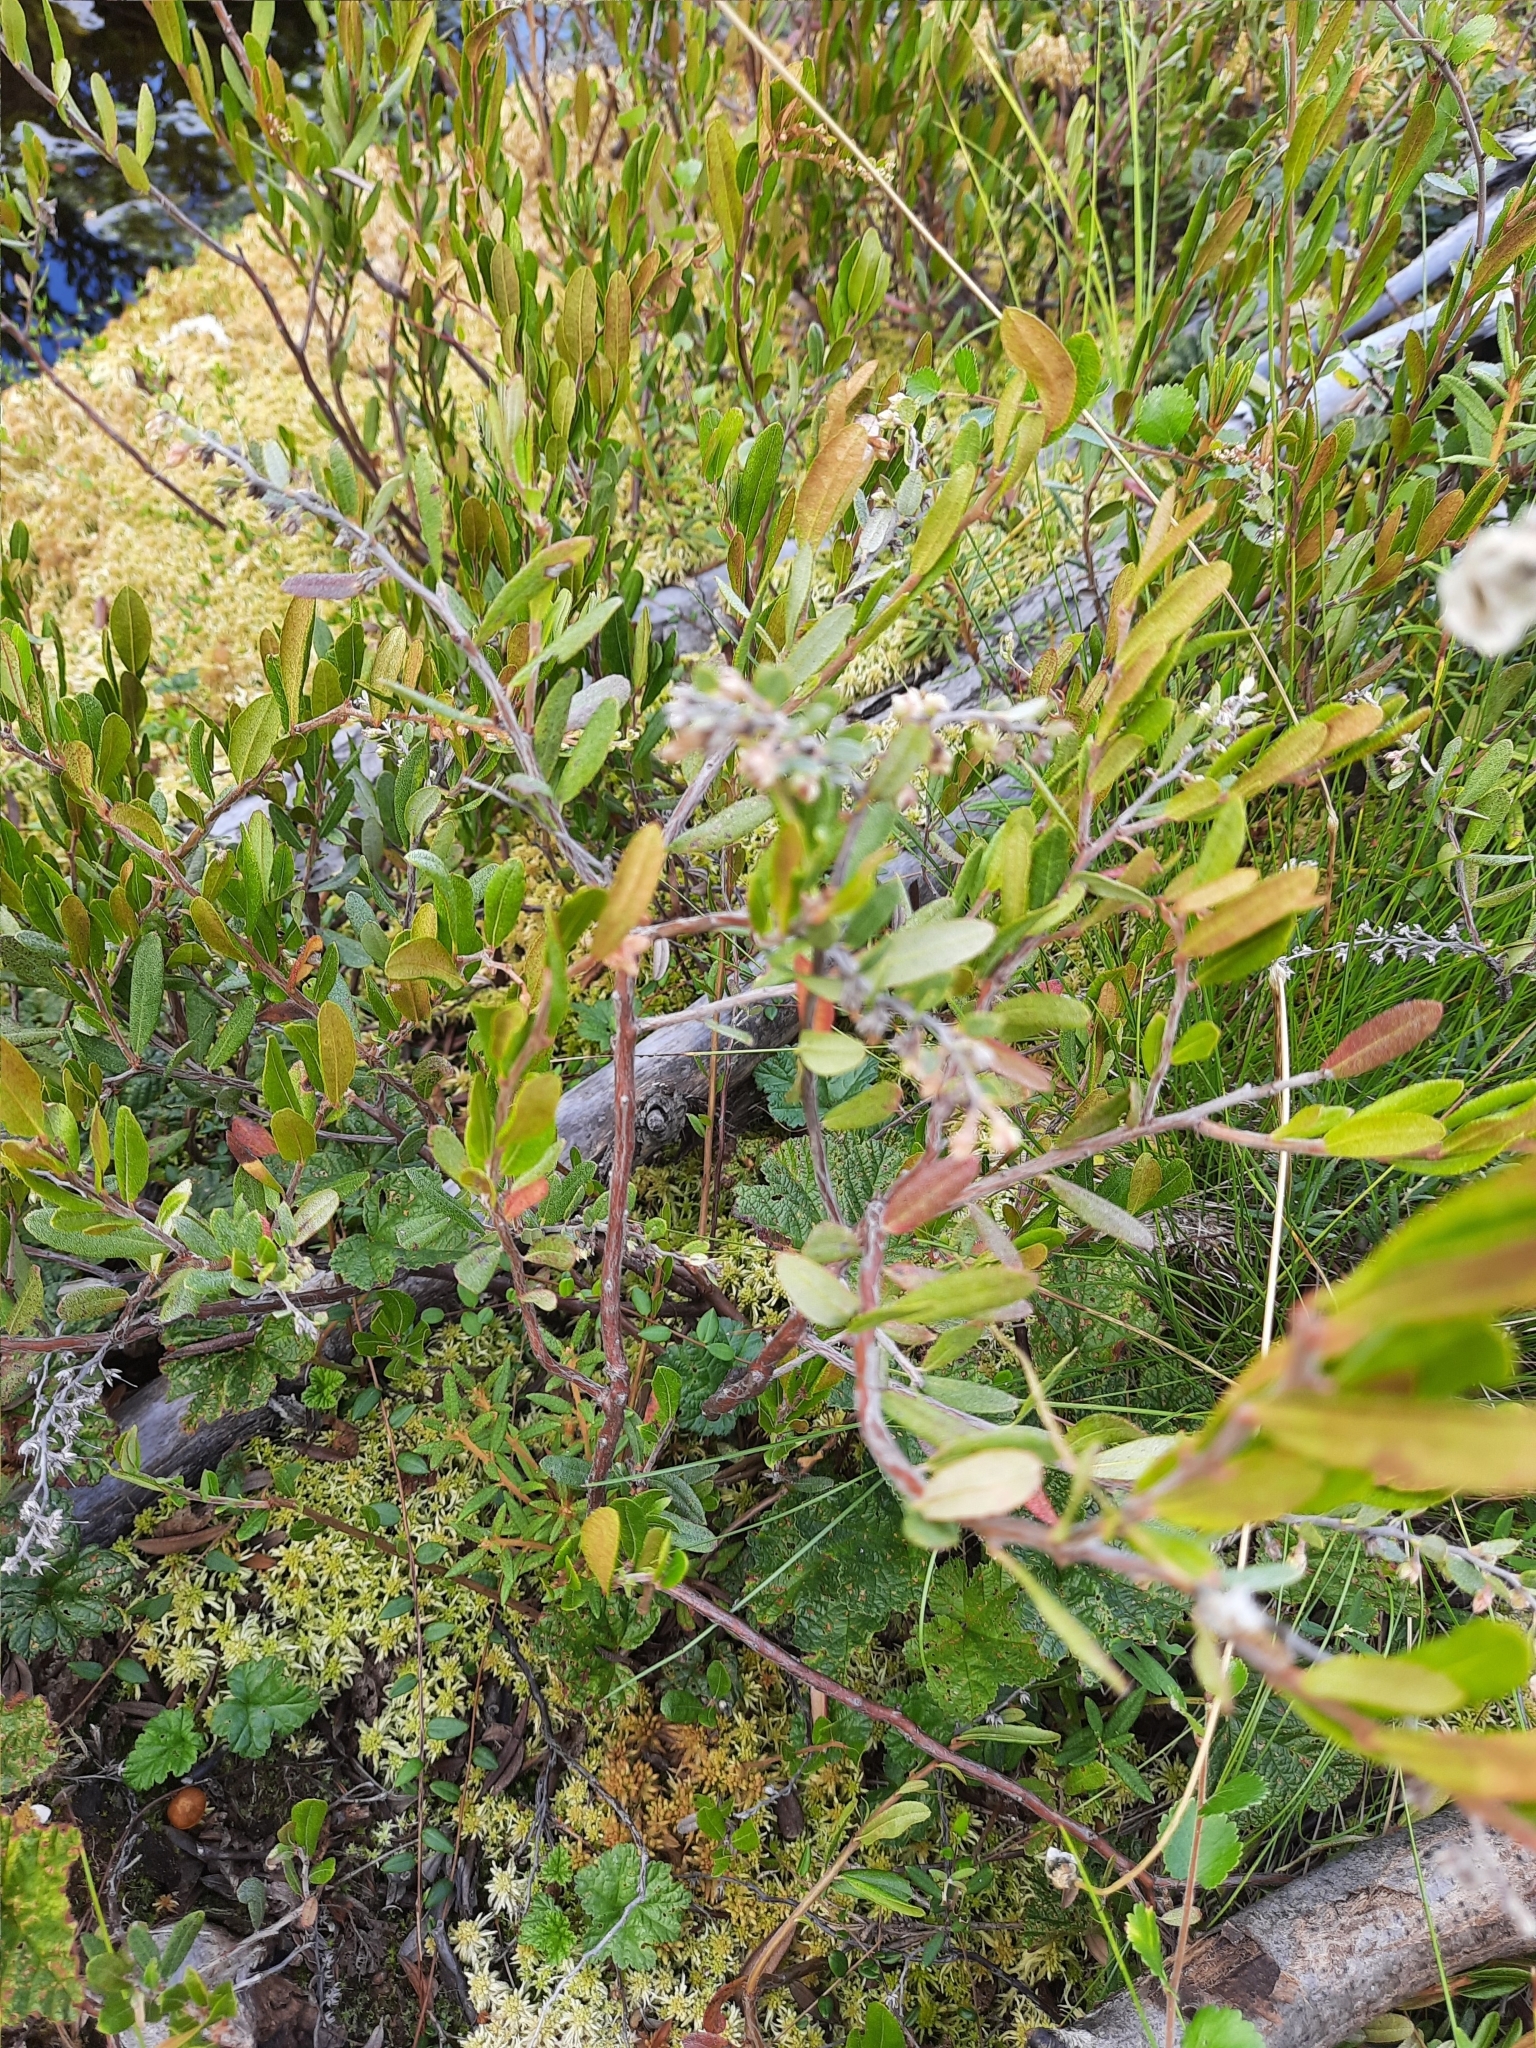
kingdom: Plantae
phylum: Tracheophyta
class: Magnoliopsida
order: Ericales
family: Ericaceae
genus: Chamaedaphne
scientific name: Chamaedaphne calyculata
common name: Leatherleaf
